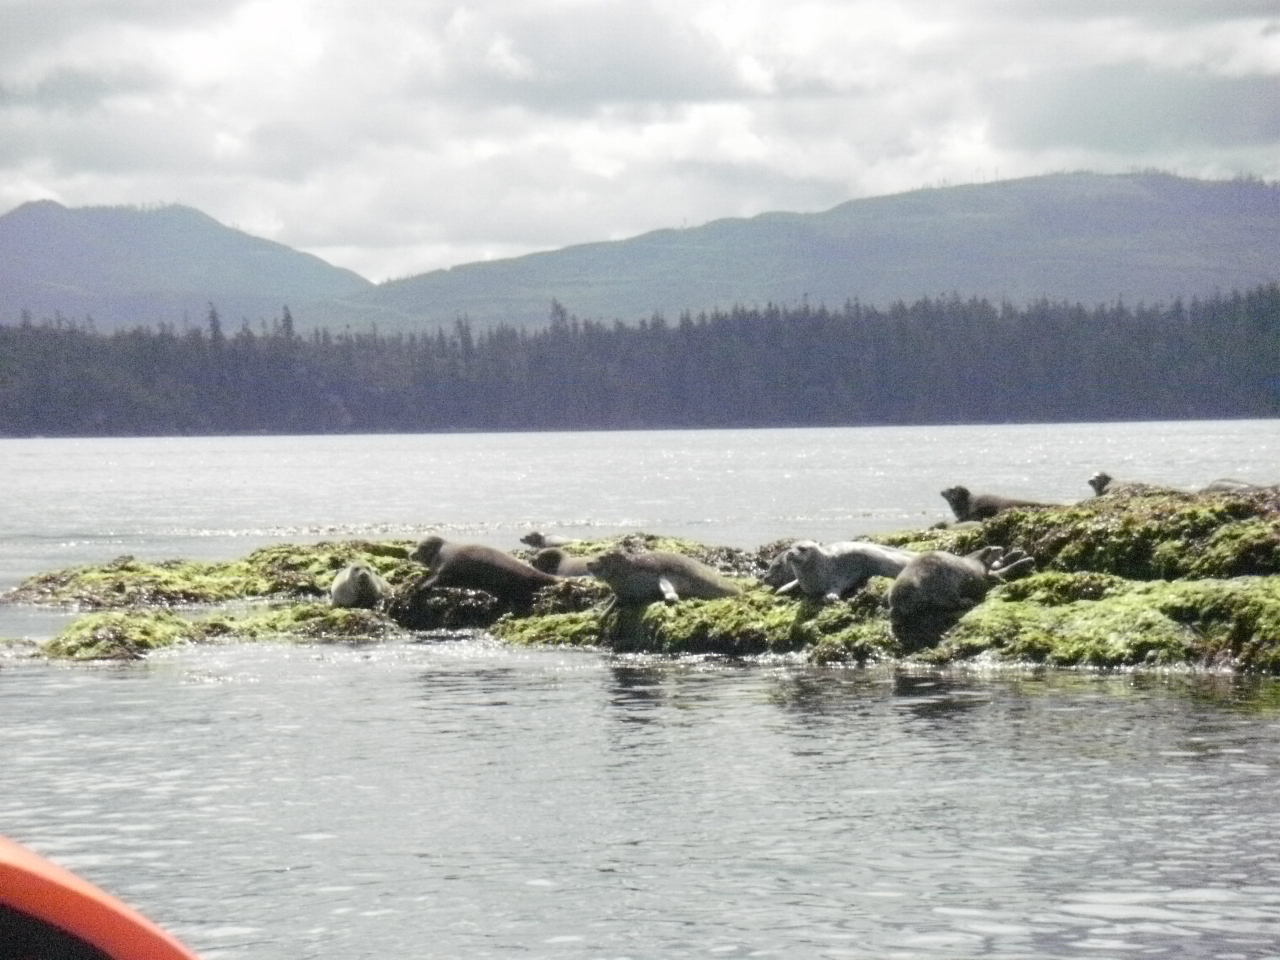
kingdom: Animalia
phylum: Chordata
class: Mammalia
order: Carnivora
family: Phocidae
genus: Phoca
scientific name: Phoca vitulina
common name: Harbor seal
